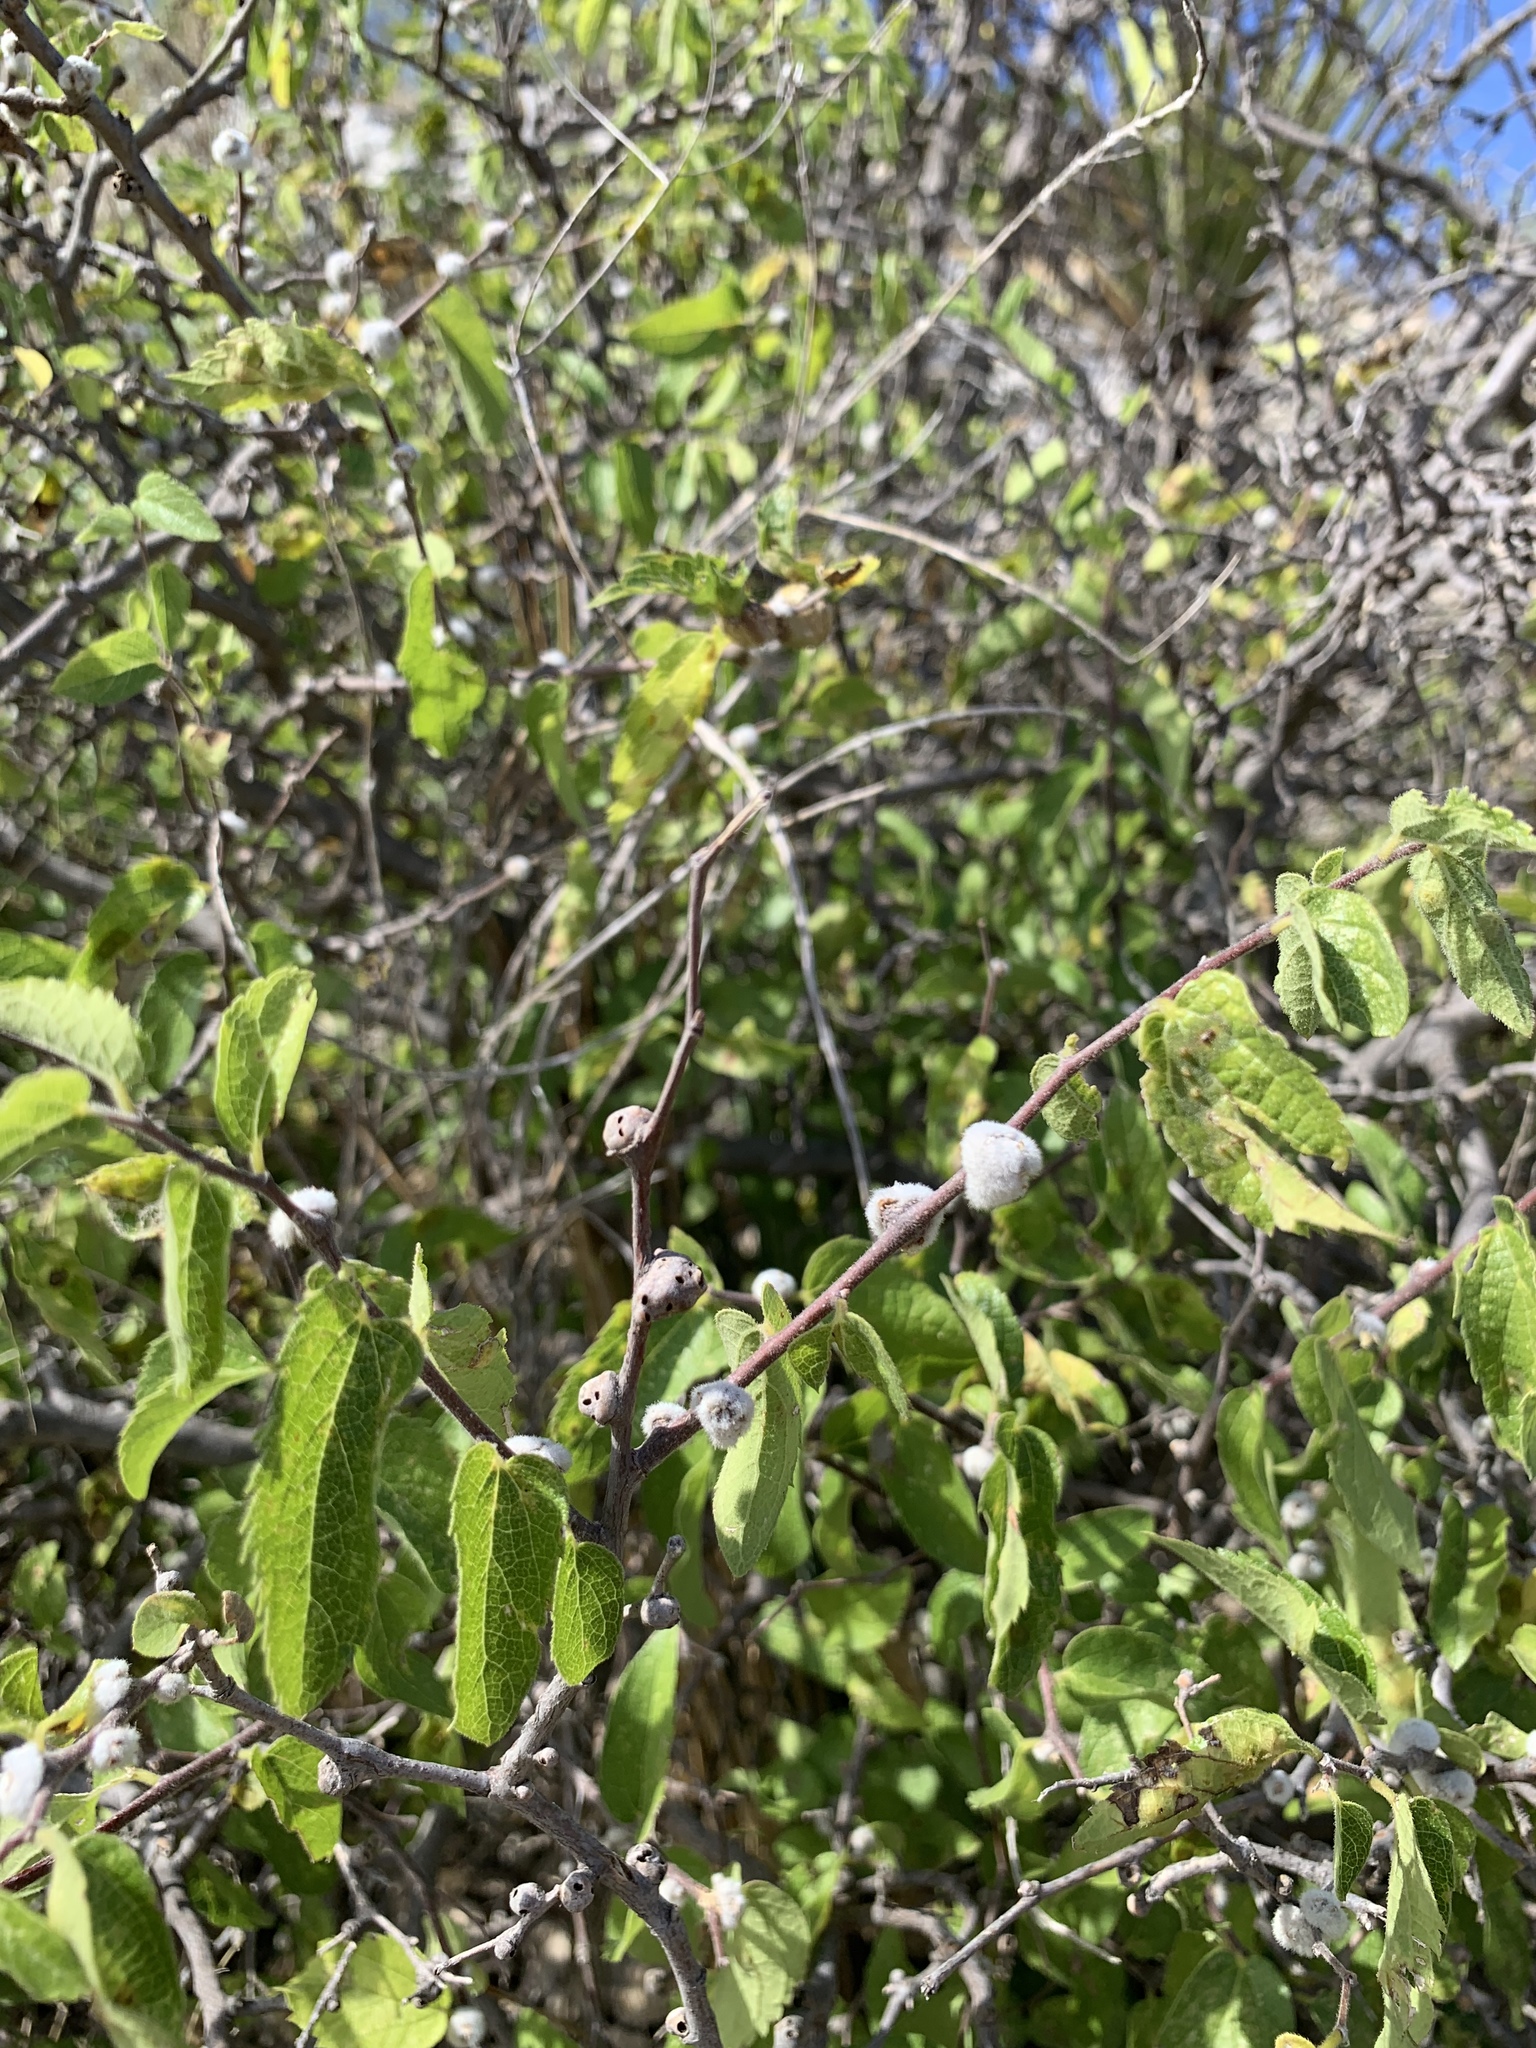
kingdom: Plantae
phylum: Tracheophyta
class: Magnoliopsida
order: Rosales
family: Cannabaceae
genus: Celtis
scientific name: Celtis reticulata
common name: Netleaf hackberry
